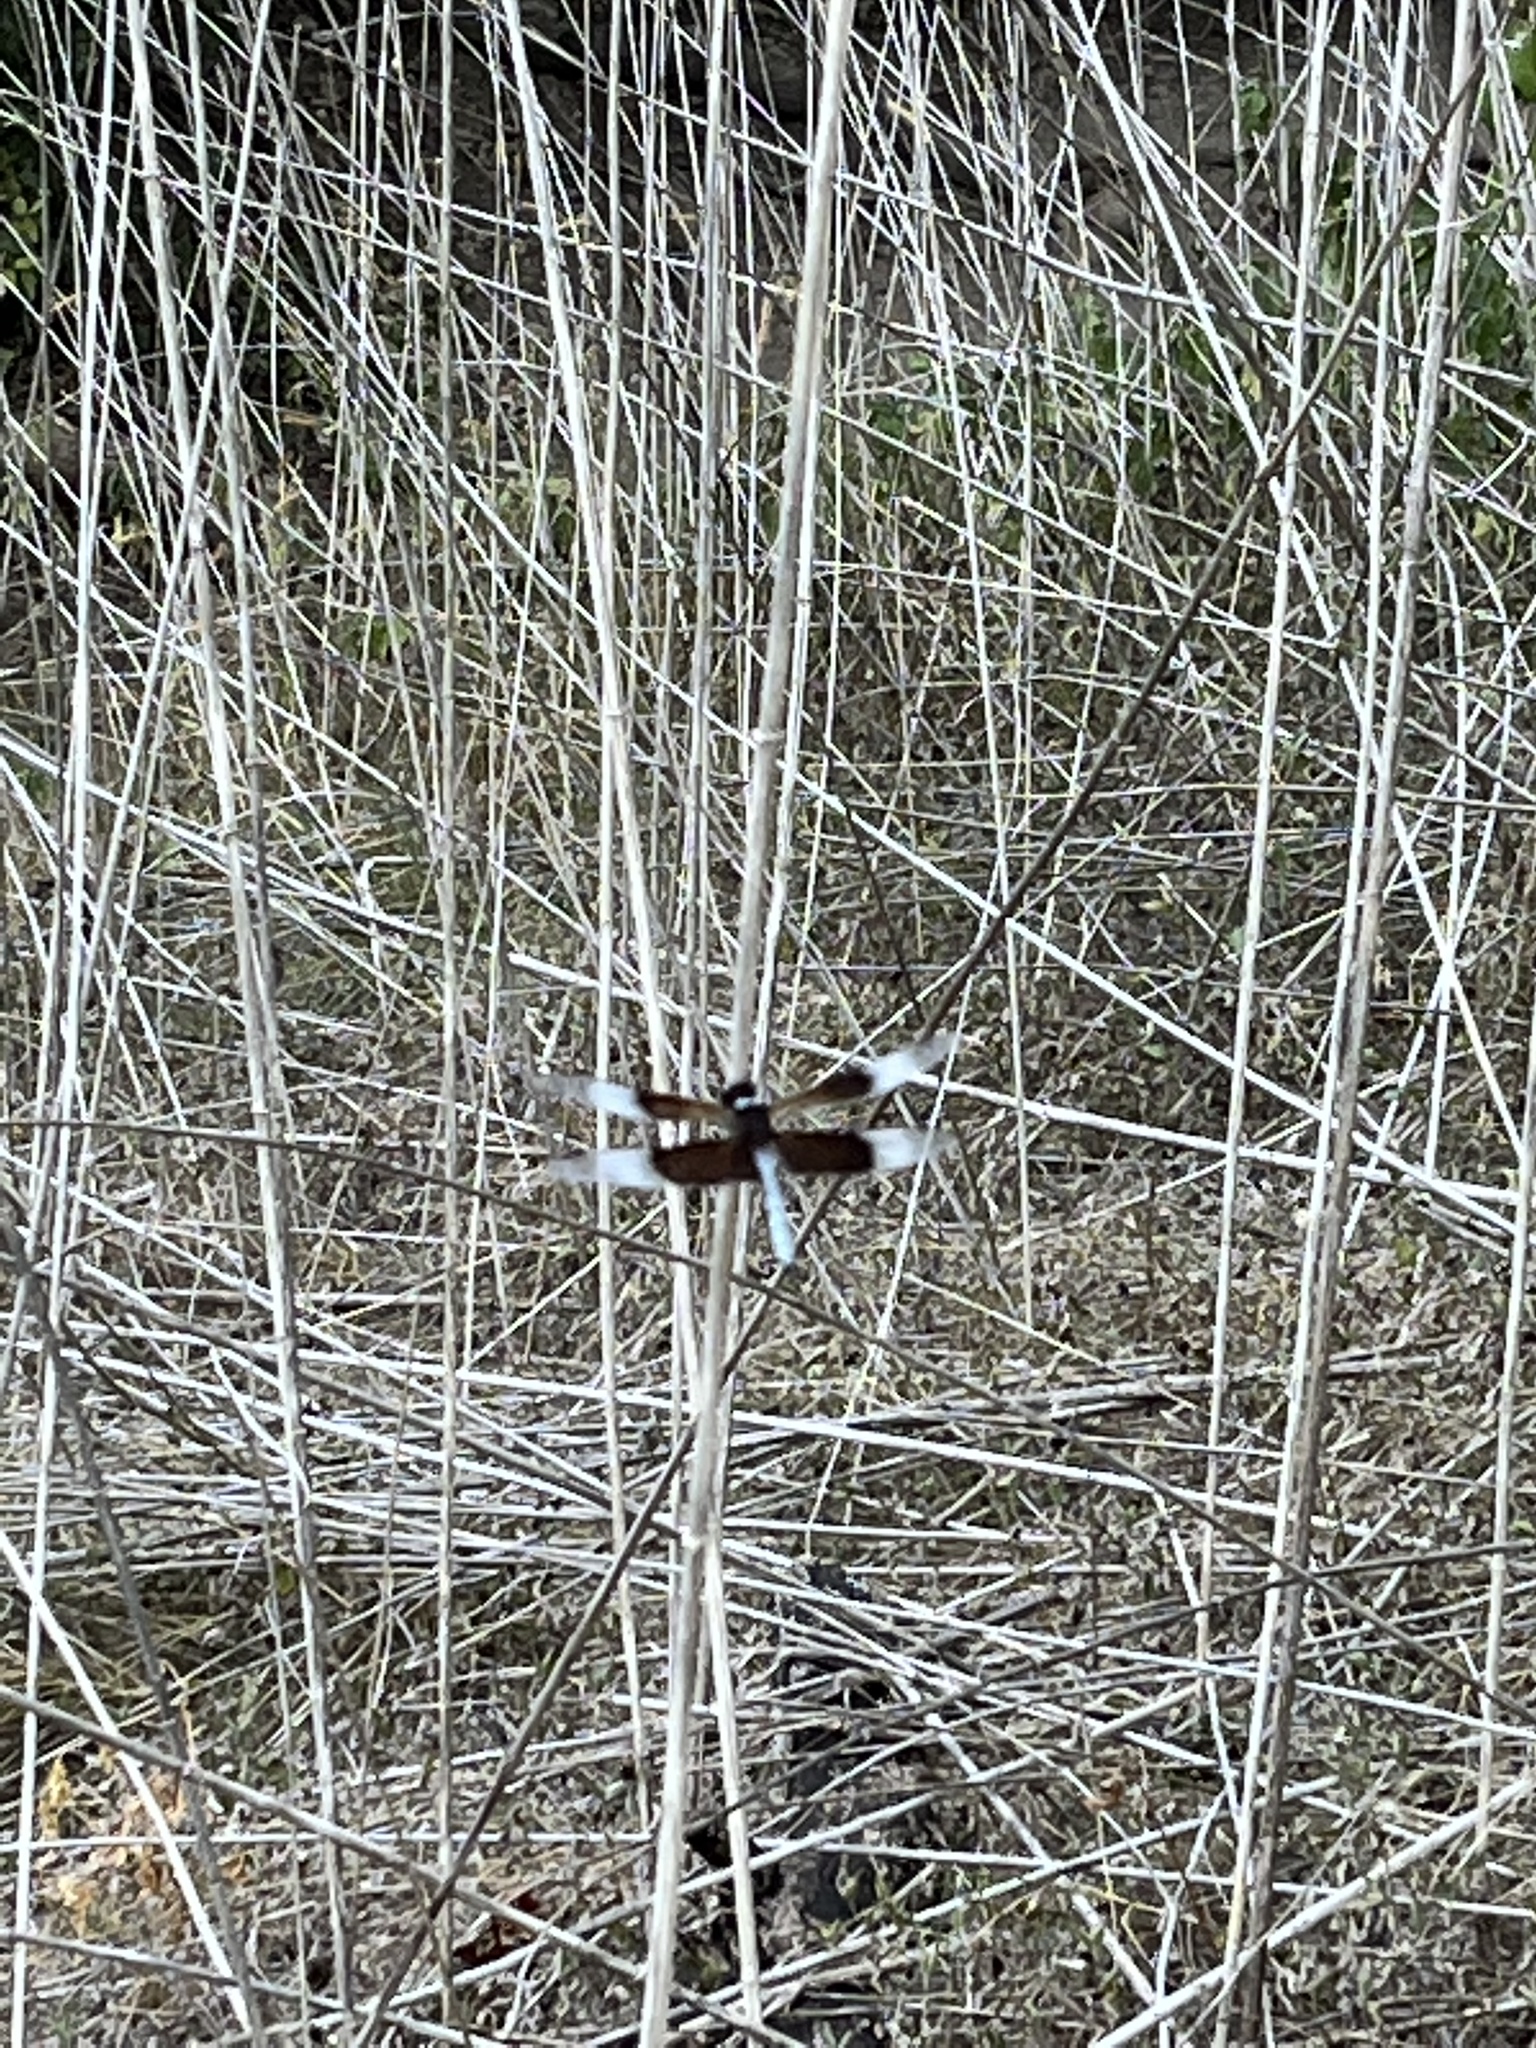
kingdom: Animalia
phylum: Arthropoda
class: Insecta
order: Odonata
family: Libellulidae
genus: Libellula
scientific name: Libellula luctuosa
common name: Widow skimmer
